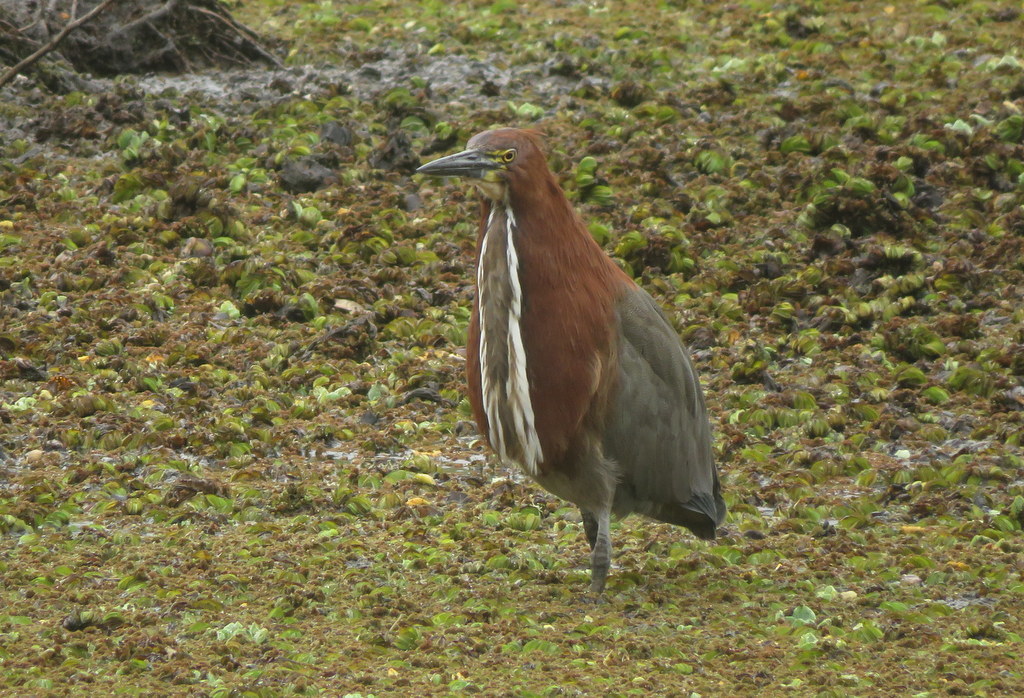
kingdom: Animalia
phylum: Chordata
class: Aves
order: Pelecaniformes
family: Ardeidae
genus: Tigrisoma
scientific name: Tigrisoma lineatum
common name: Rufescent tiger-heron
